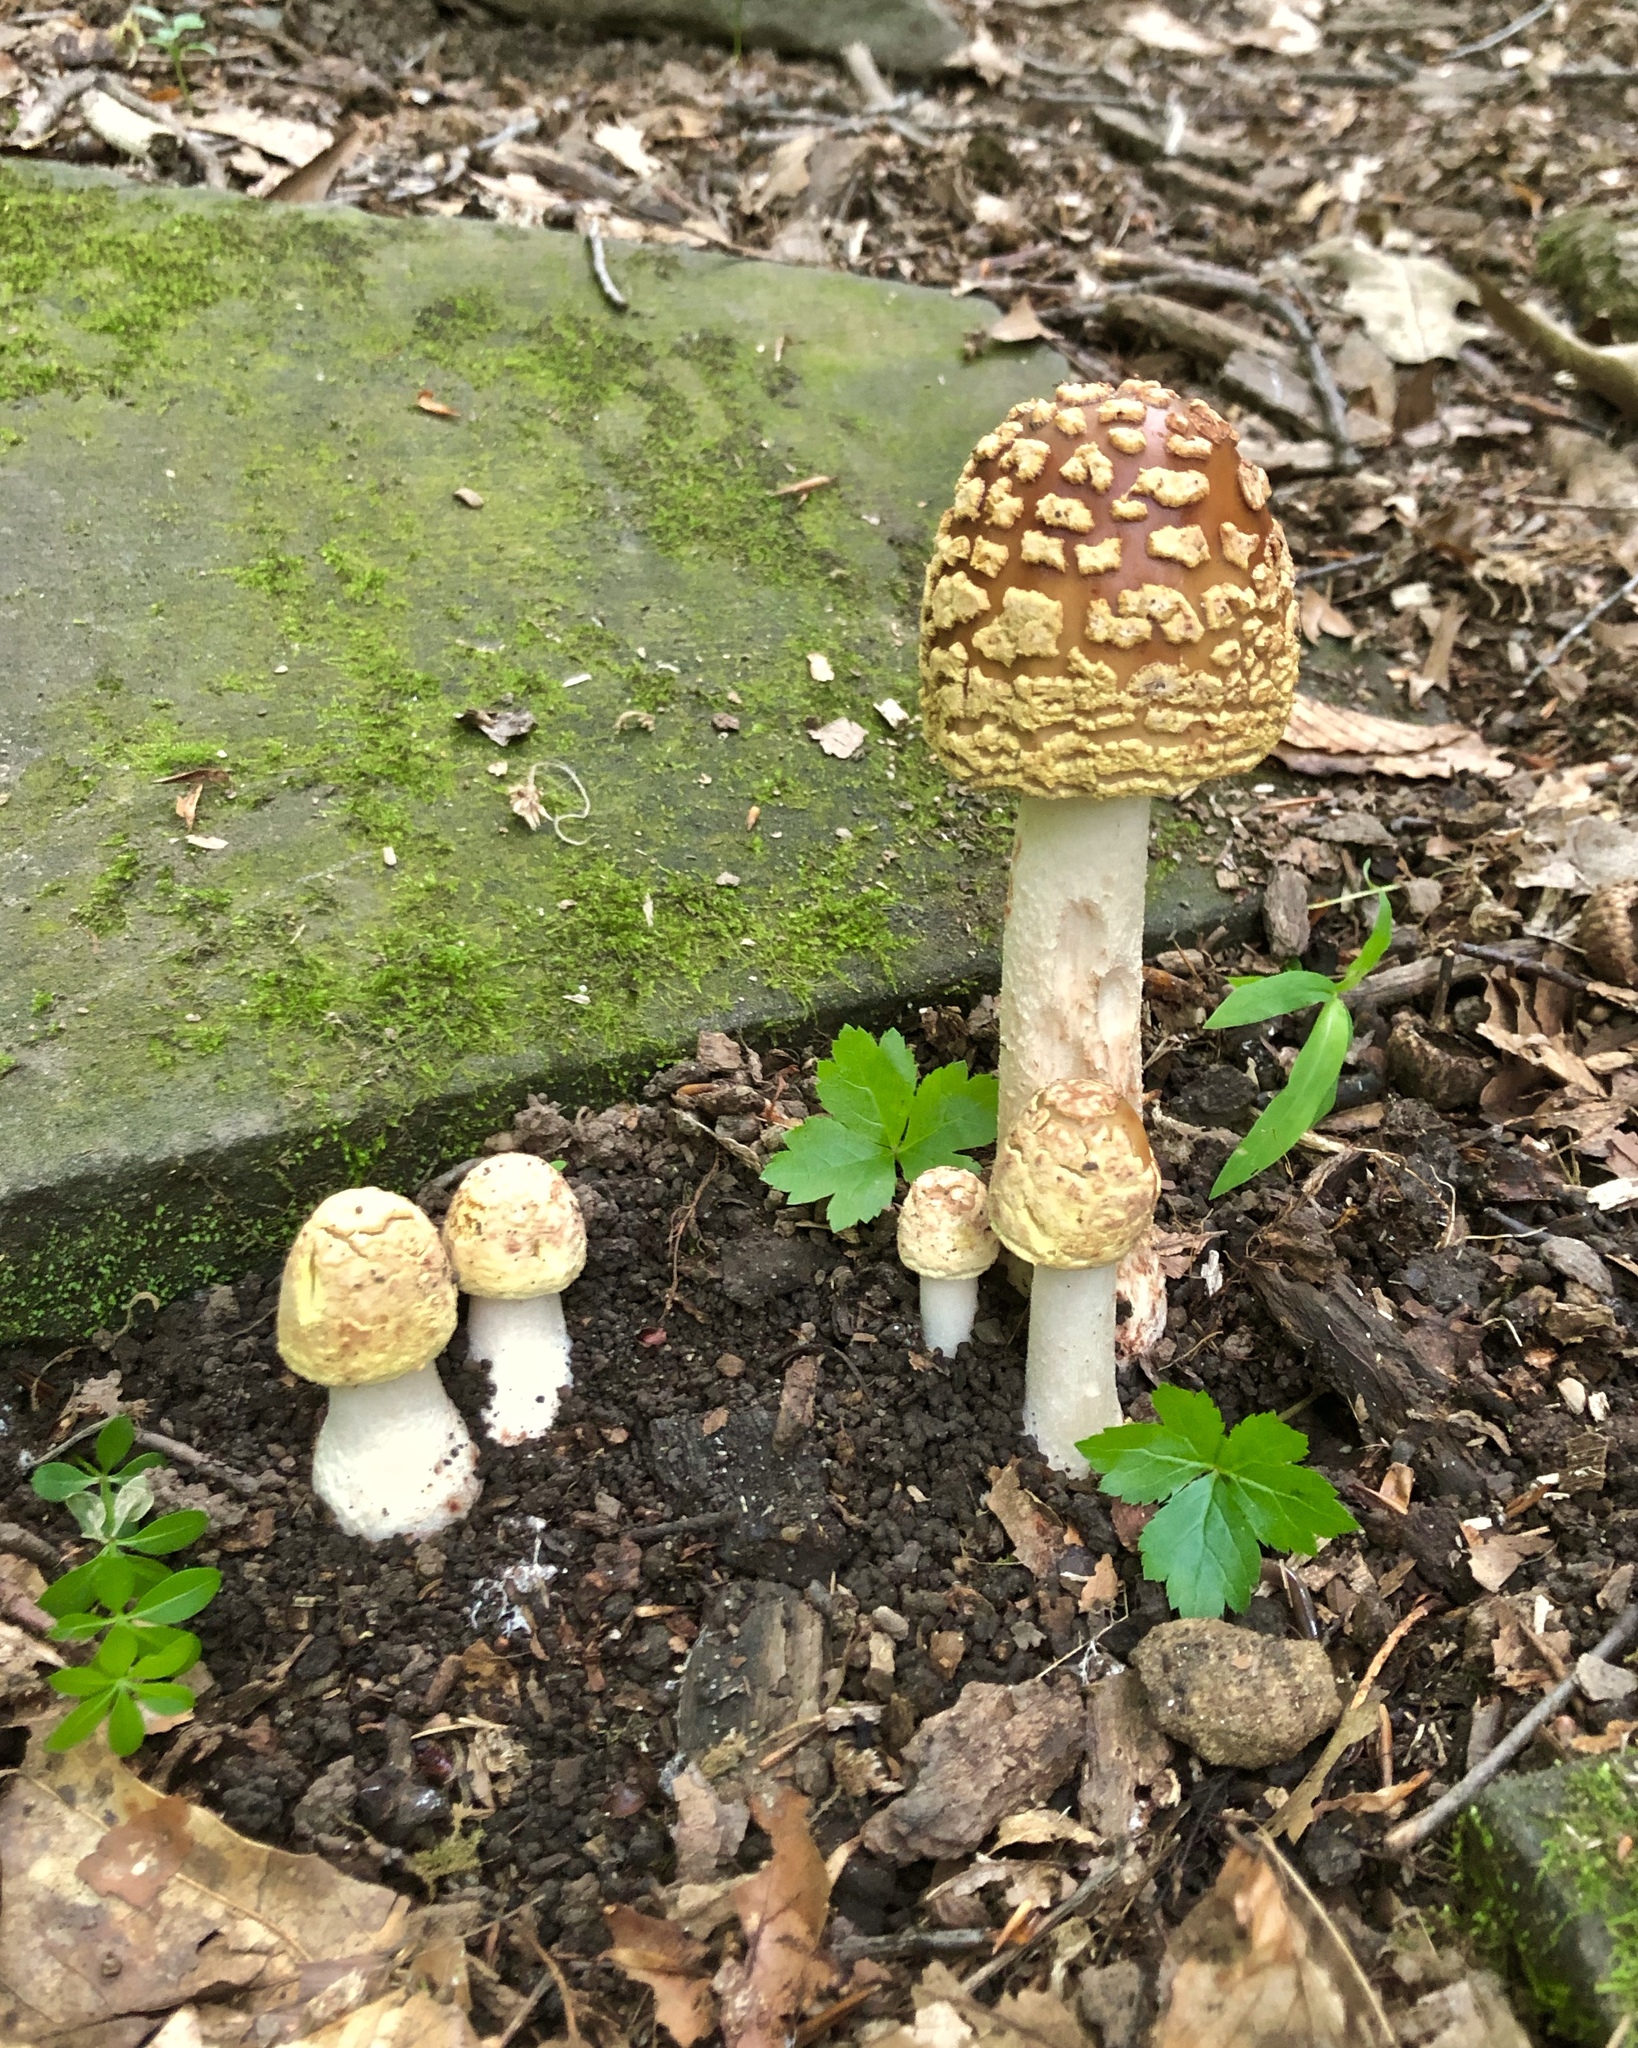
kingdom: Fungi
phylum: Basidiomycota
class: Agaricomycetes
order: Agaricales
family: Amanitaceae
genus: Amanita
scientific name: Amanita rubescens
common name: Blusher
